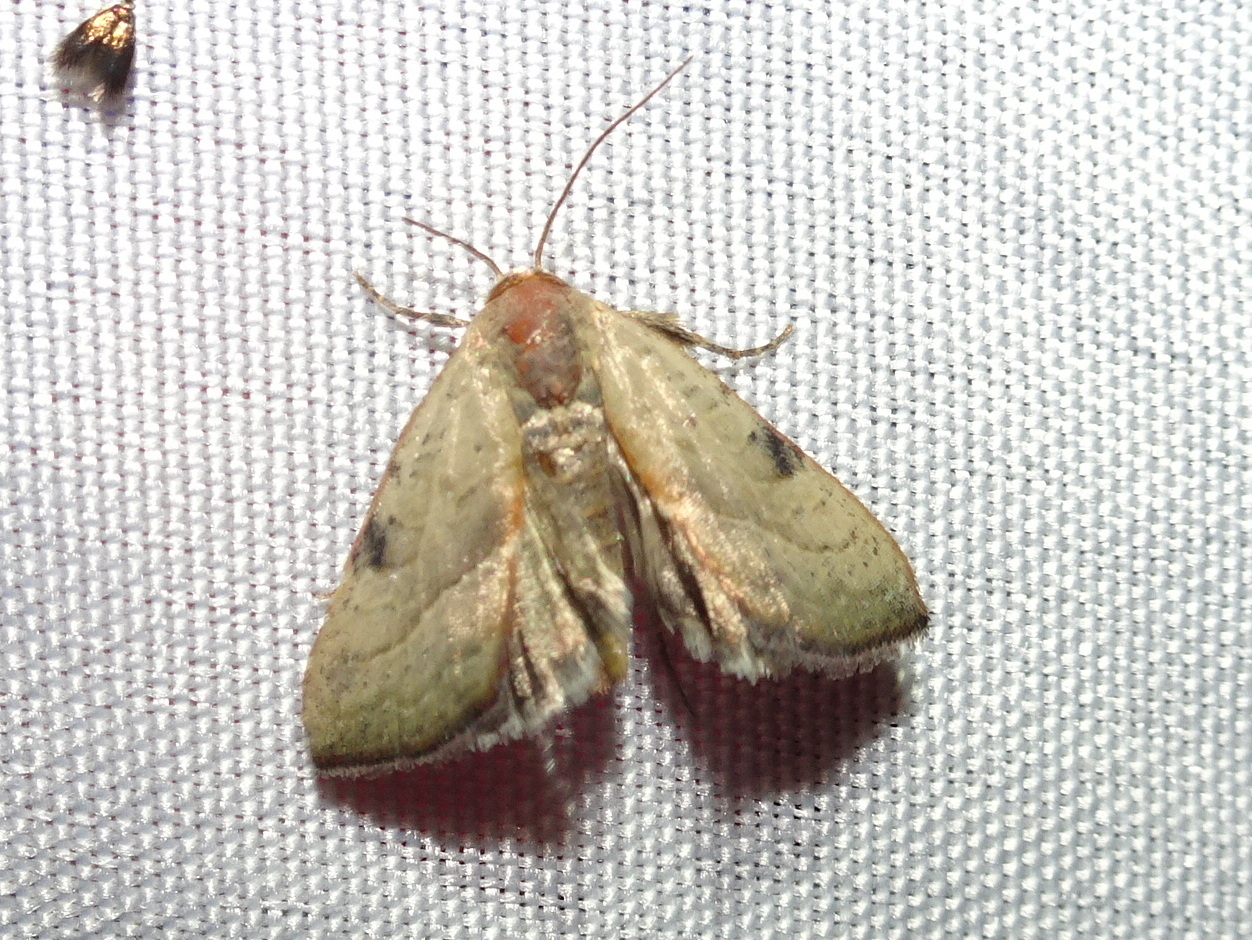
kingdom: Animalia
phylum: Arthropoda
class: Insecta
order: Lepidoptera
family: Noctuidae
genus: Galgula
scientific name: Galgula partita
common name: Wedgeling
